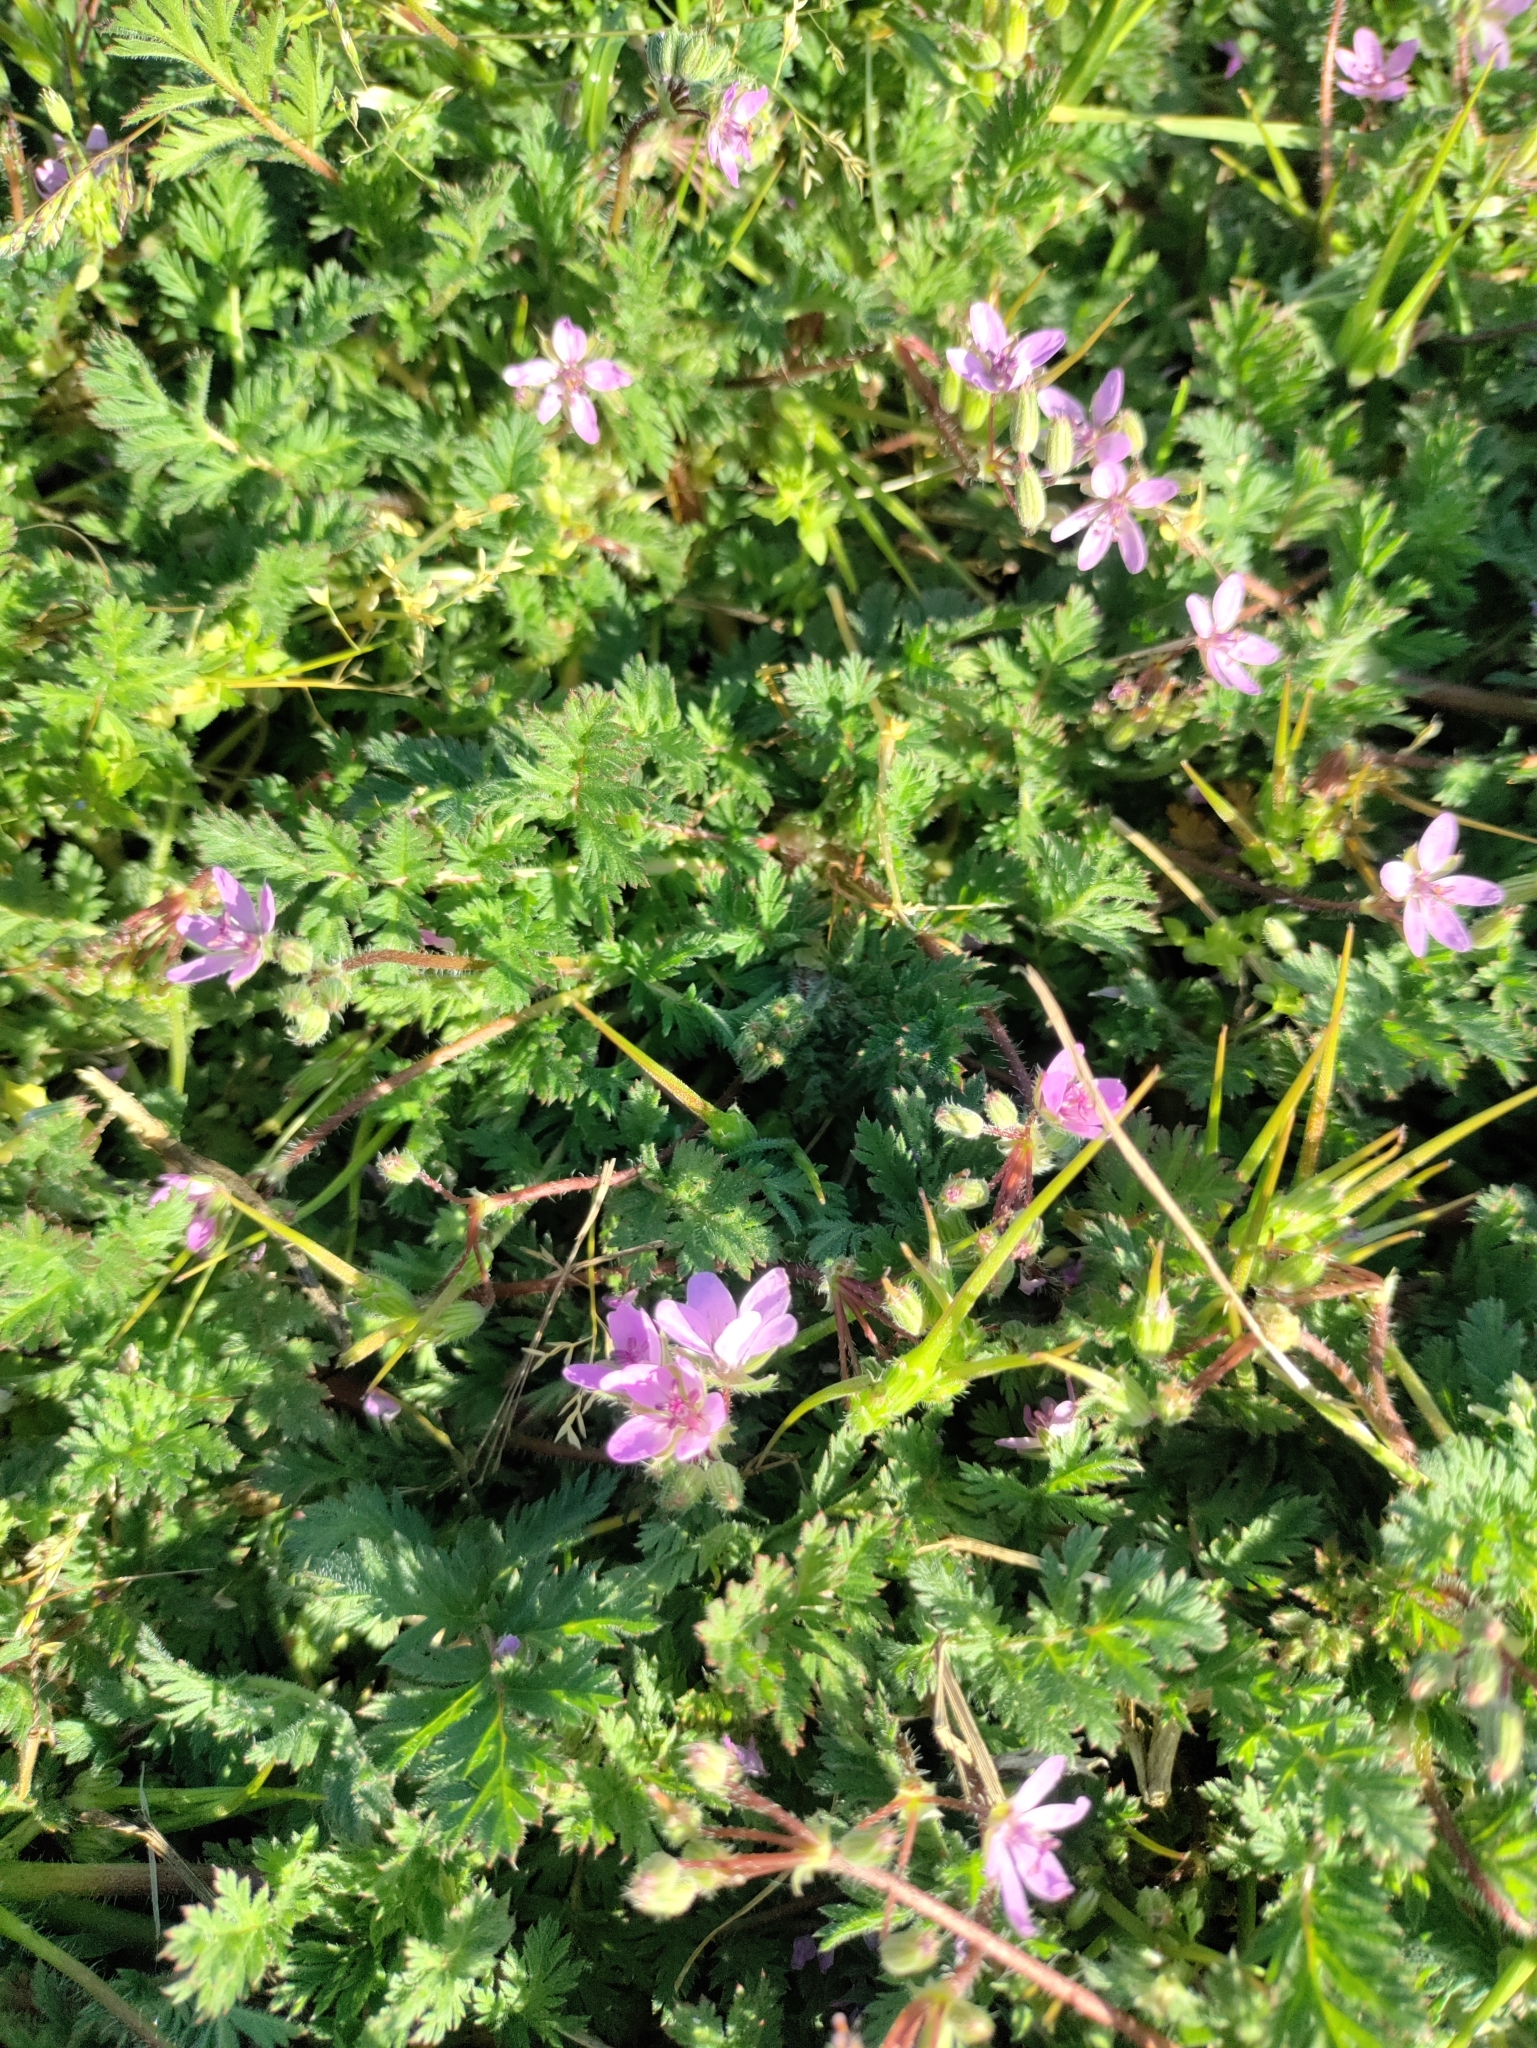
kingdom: Plantae
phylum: Tracheophyta
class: Magnoliopsida
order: Geraniales
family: Geraniaceae
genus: Erodium
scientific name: Erodium cicutarium
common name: Common stork's-bill
